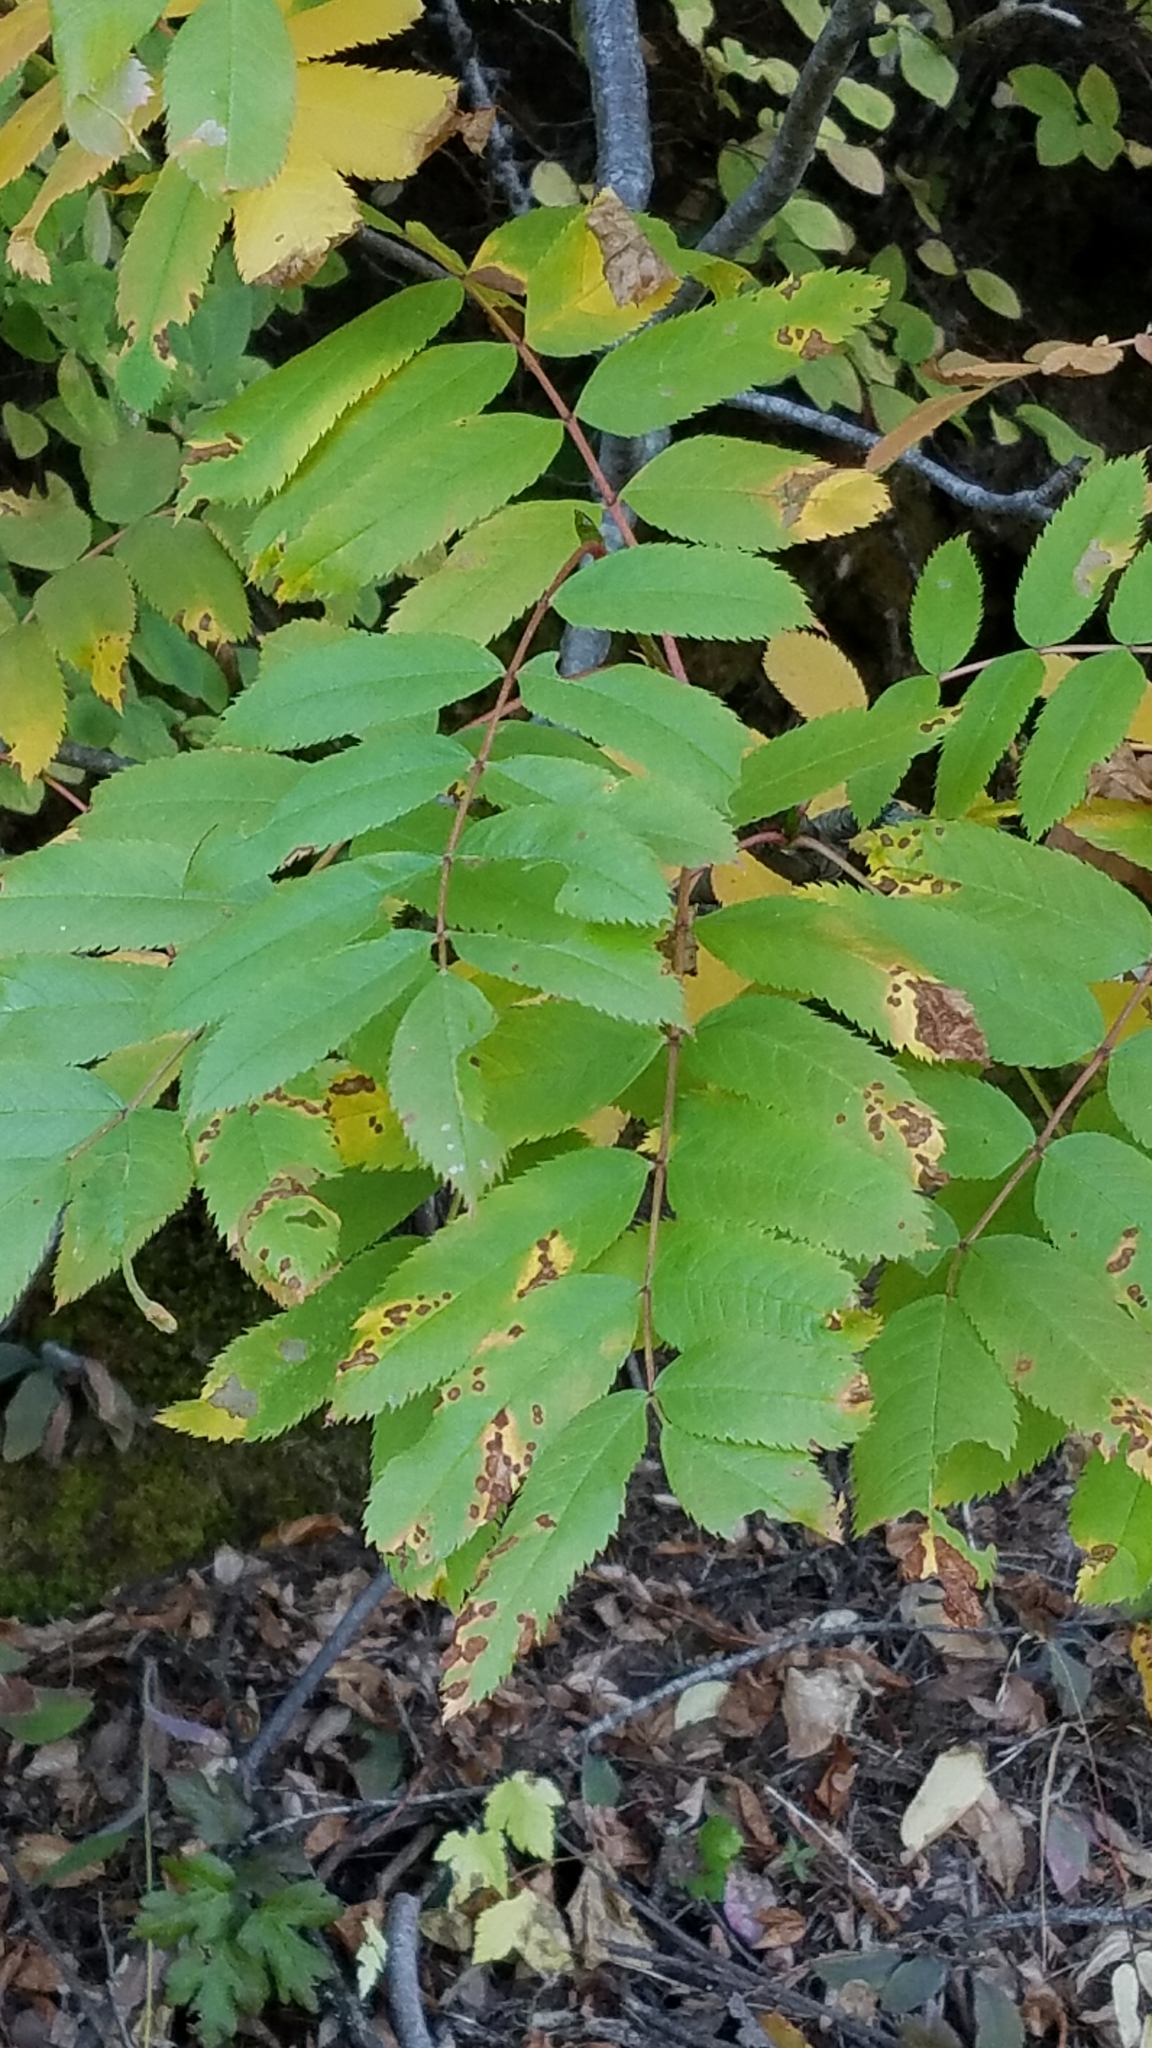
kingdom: Plantae
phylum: Tracheophyta
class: Magnoliopsida
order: Rosales
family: Rosaceae
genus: Sorbus
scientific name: Sorbus scopulina
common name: Greene's mountain-ash
